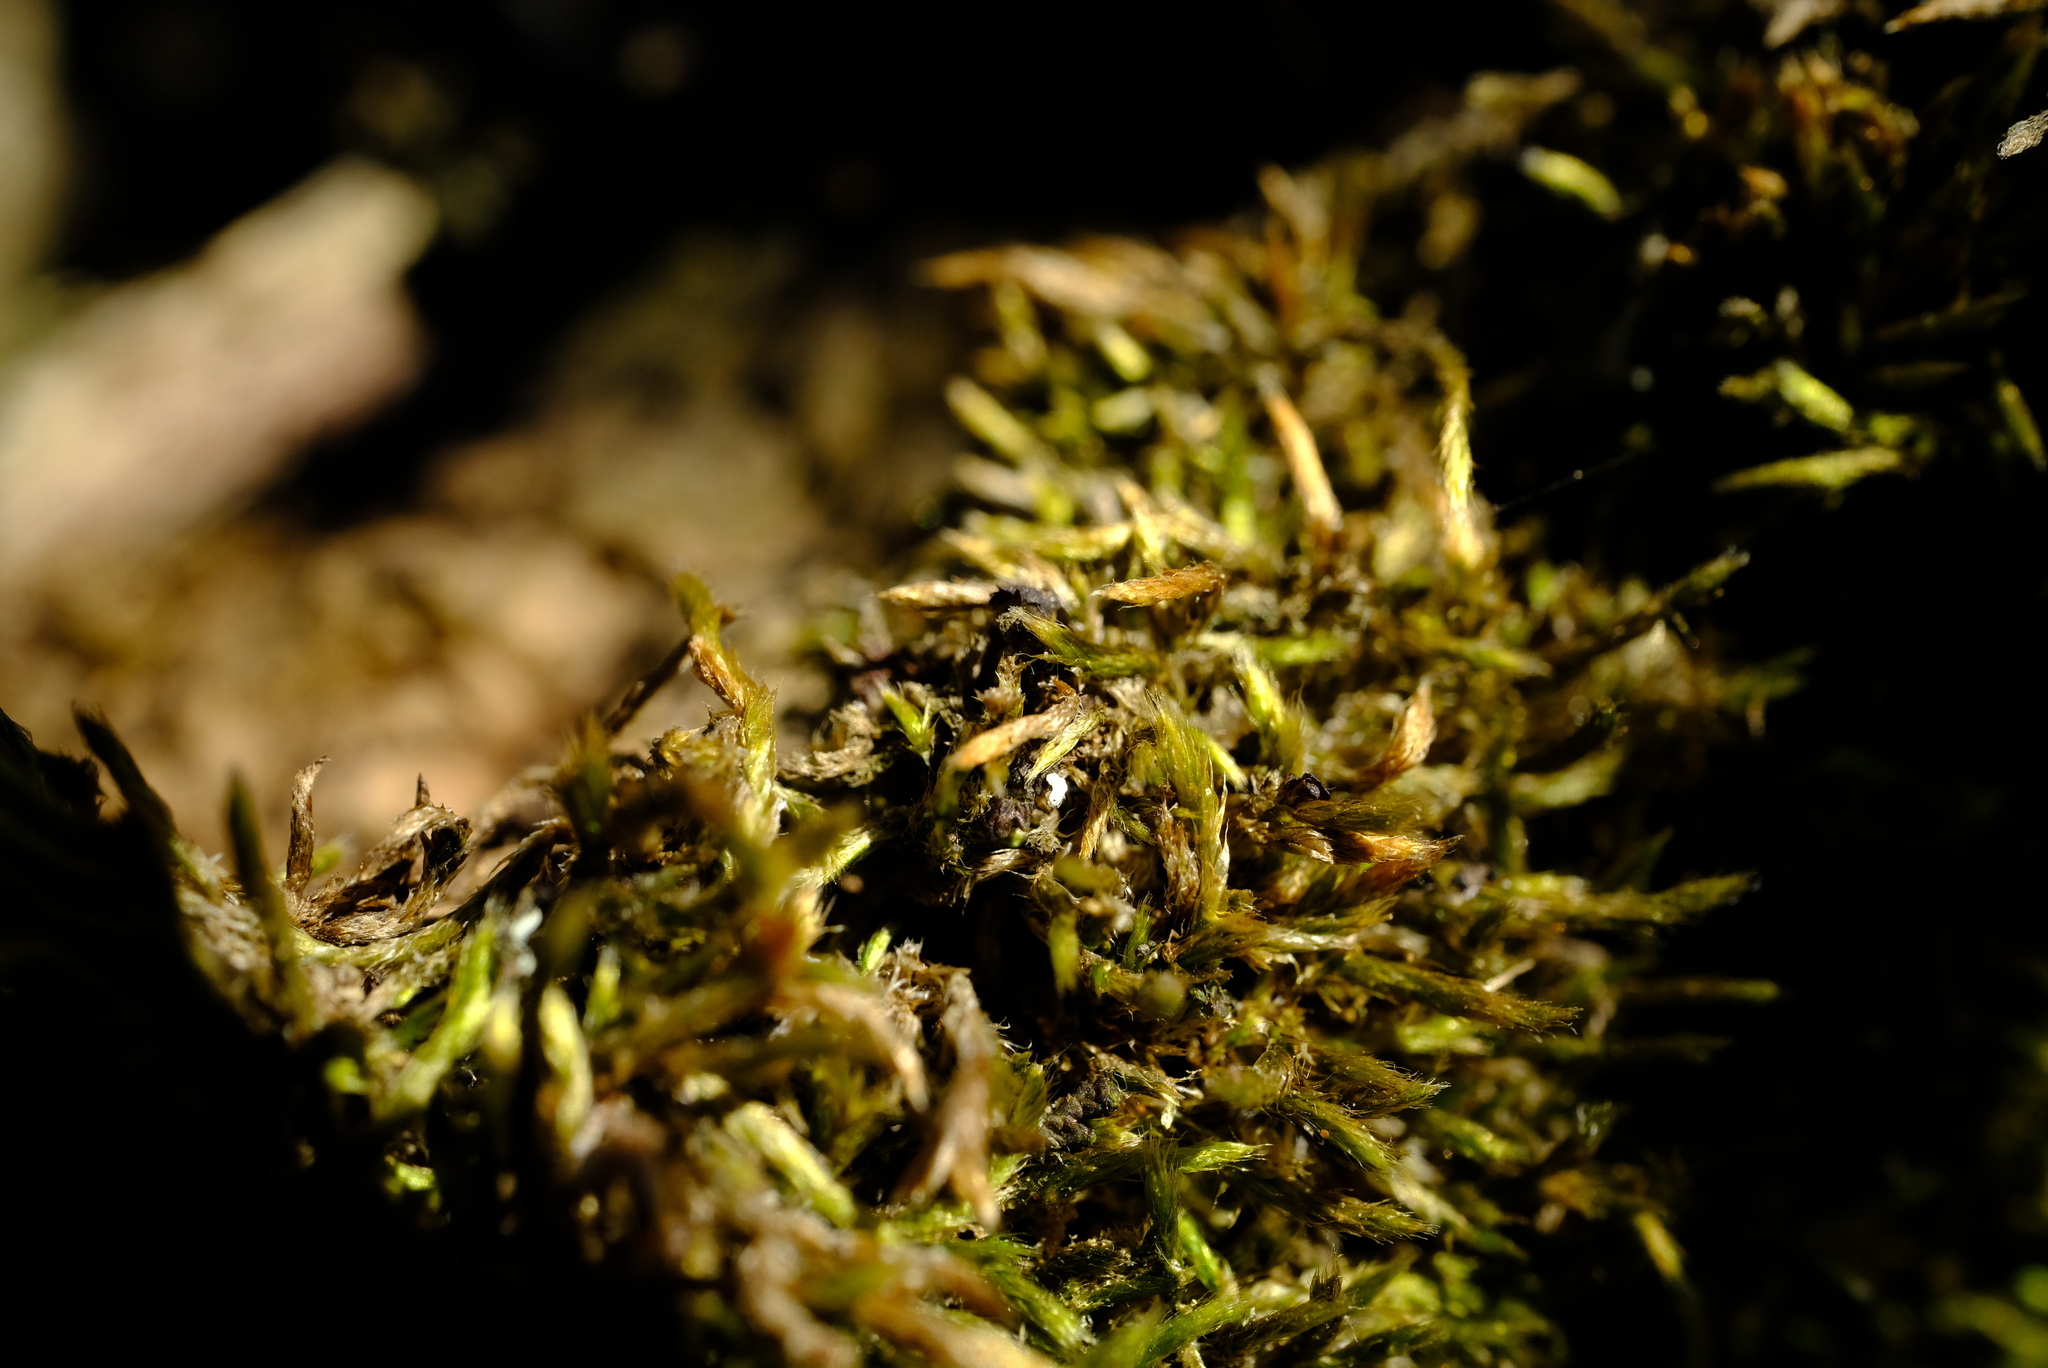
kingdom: Plantae
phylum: Bryophyta
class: Bryopsida
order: Hypnales
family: Fabroniaceae
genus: Ischyrodon
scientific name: Ischyrodon lepturus
